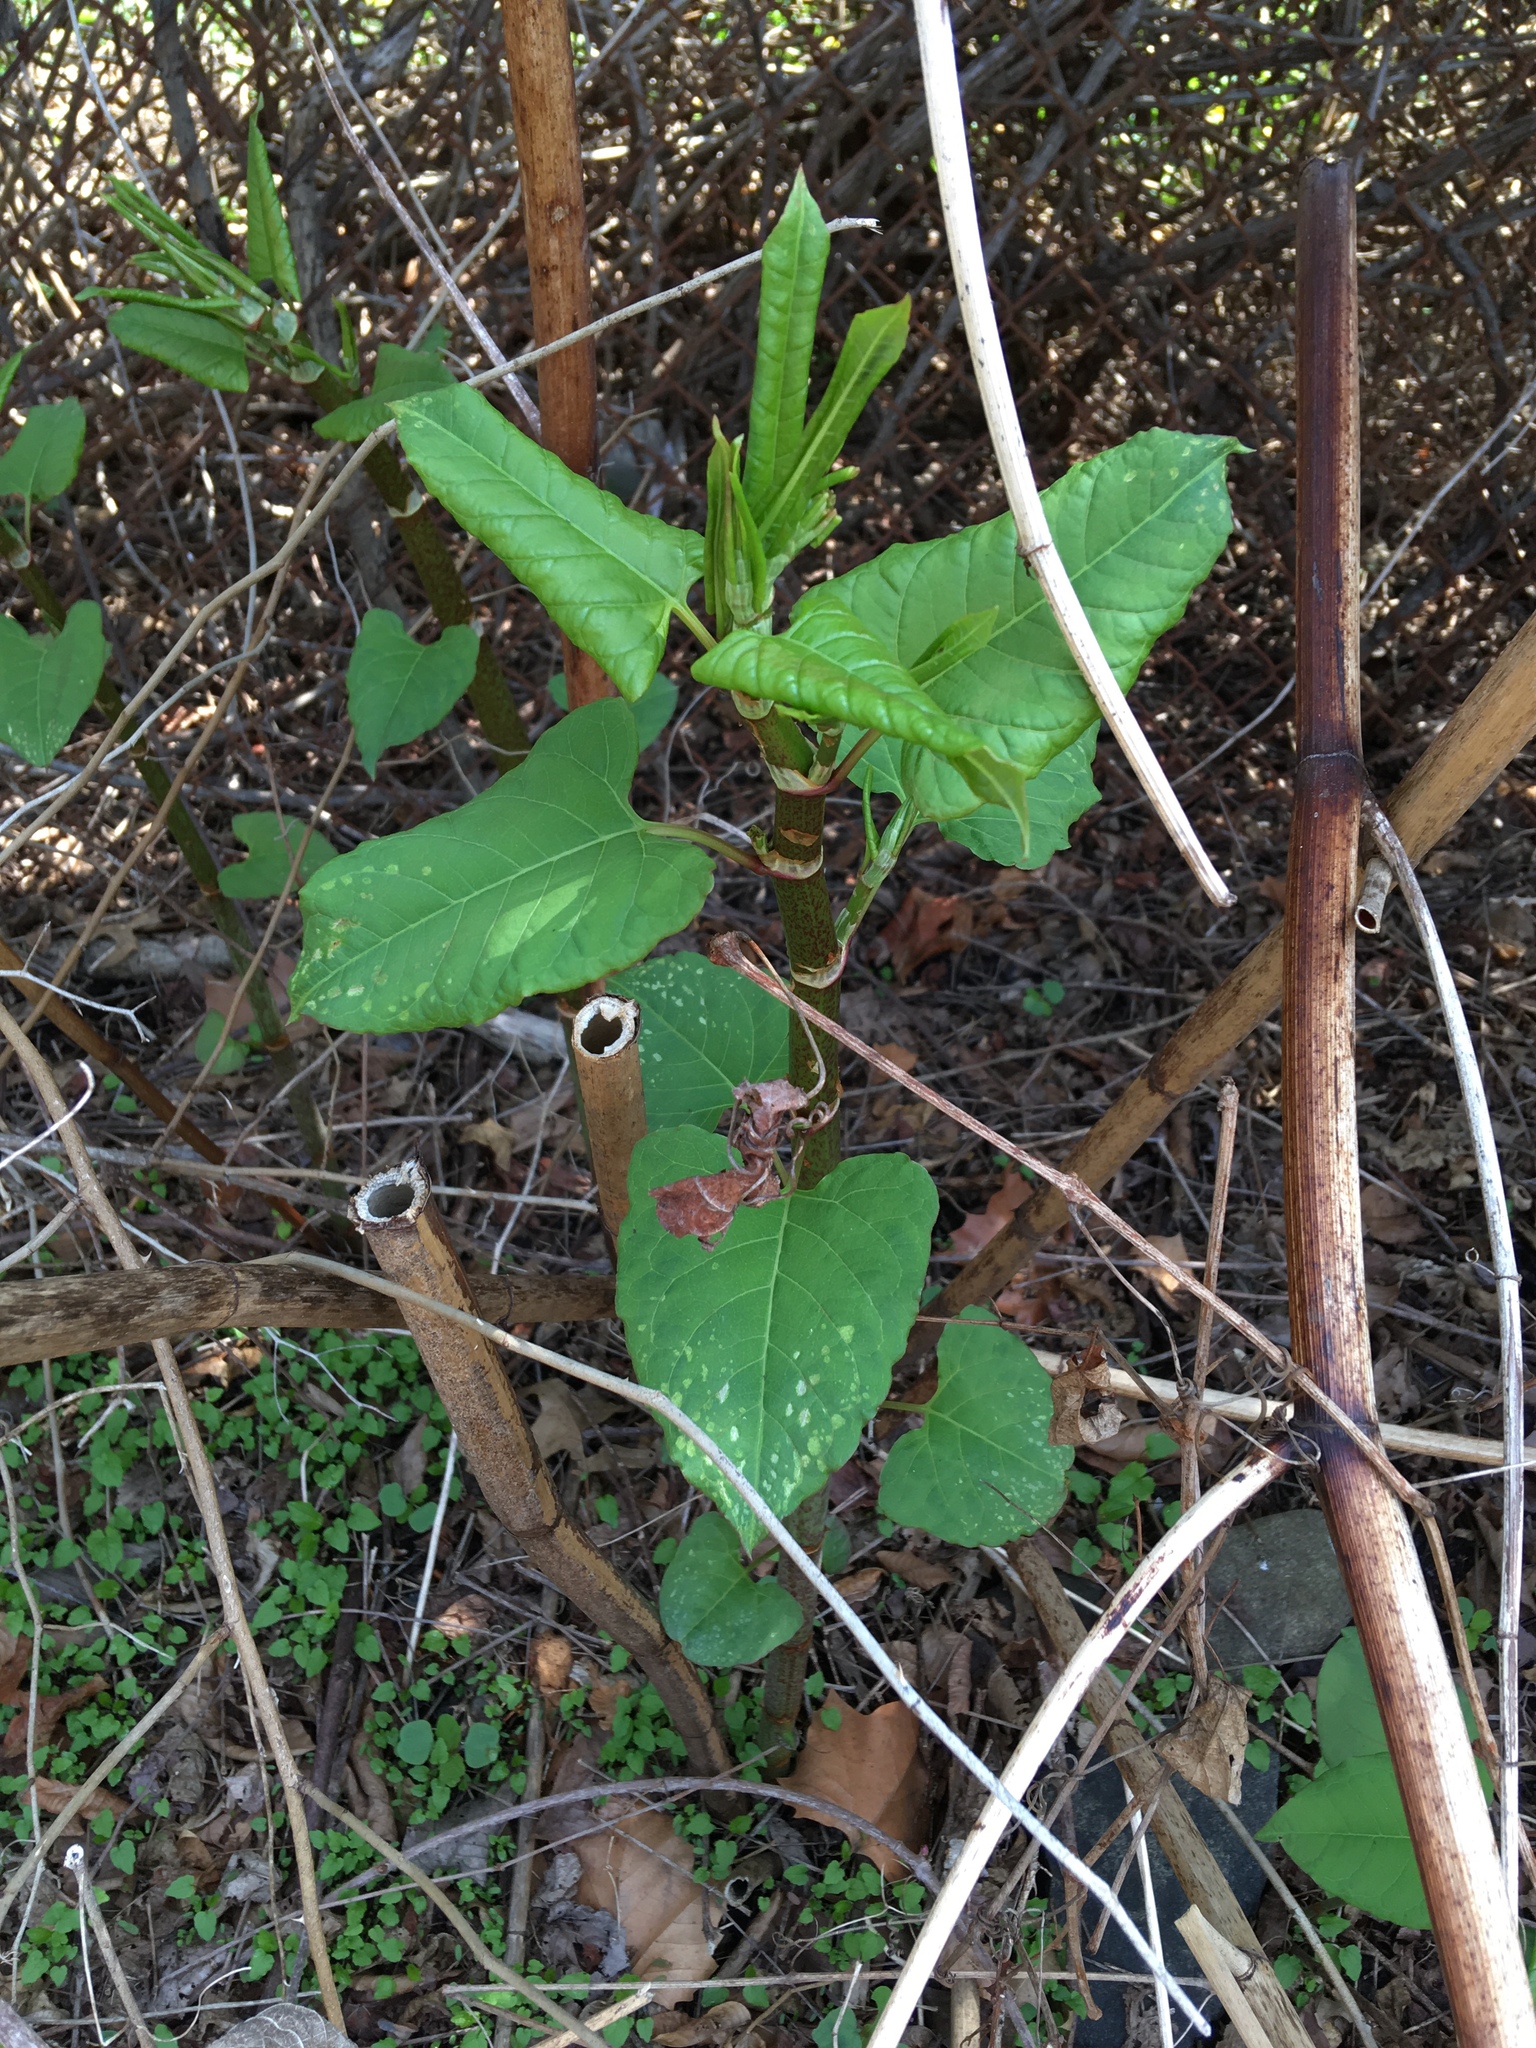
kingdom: Plantae
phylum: Tracheophyta
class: Magnoliopsida
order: Caryophyllales
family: Polygonaceae
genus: Reynoutria
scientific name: Reynoutria japonica
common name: Japanese knotweed
